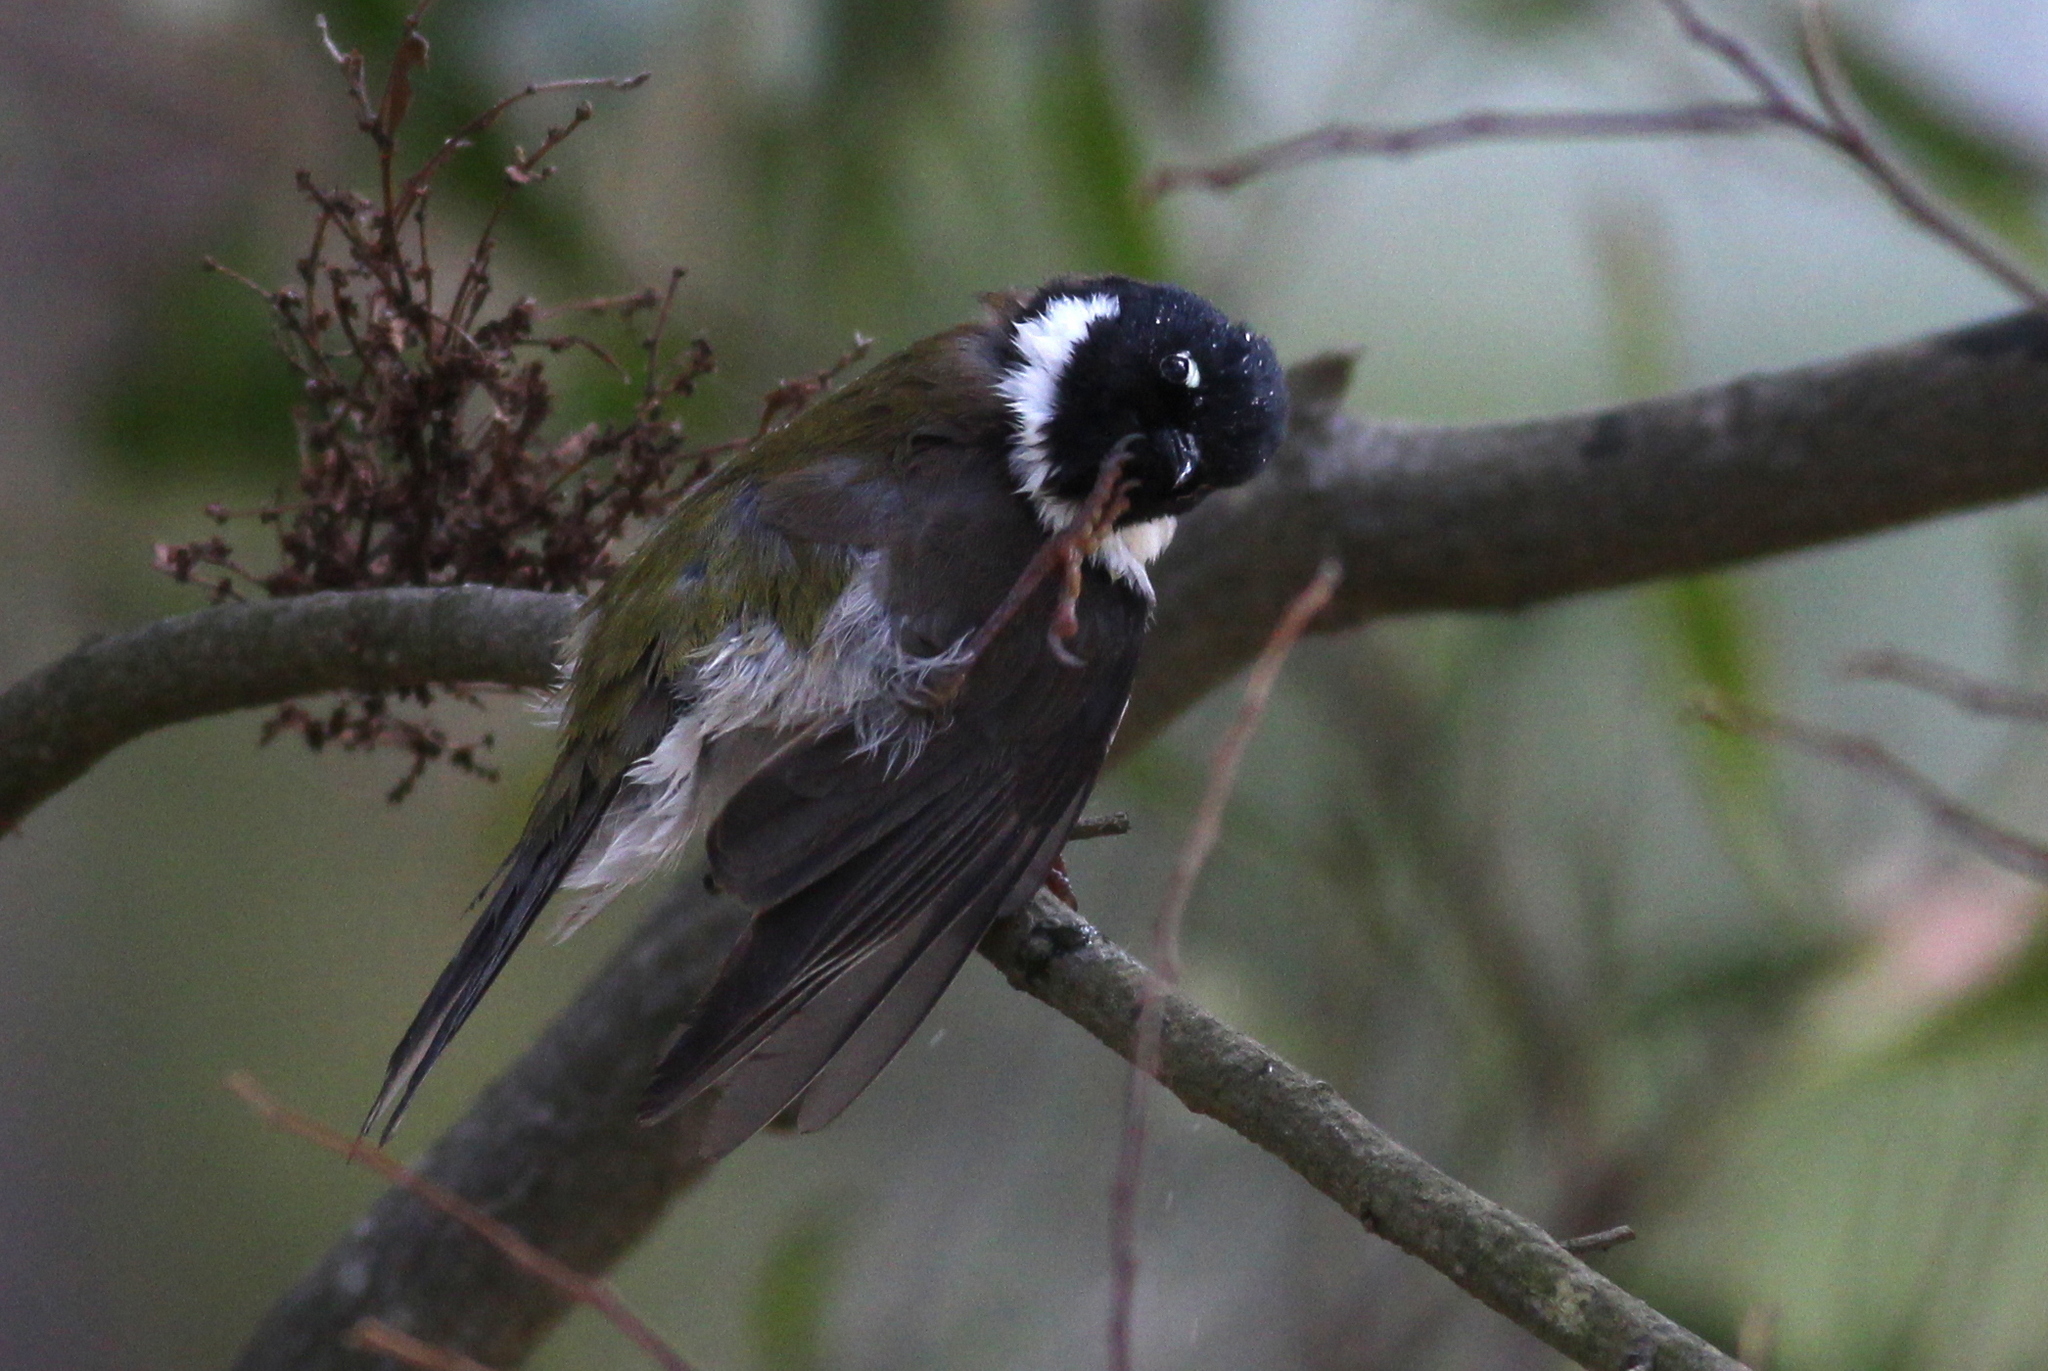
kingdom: Animalia
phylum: Chordata
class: Aves
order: Passeriformes
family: Meliphagidae
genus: Melithreptus
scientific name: Melithreptus affinis
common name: Black-headed honeyeater
